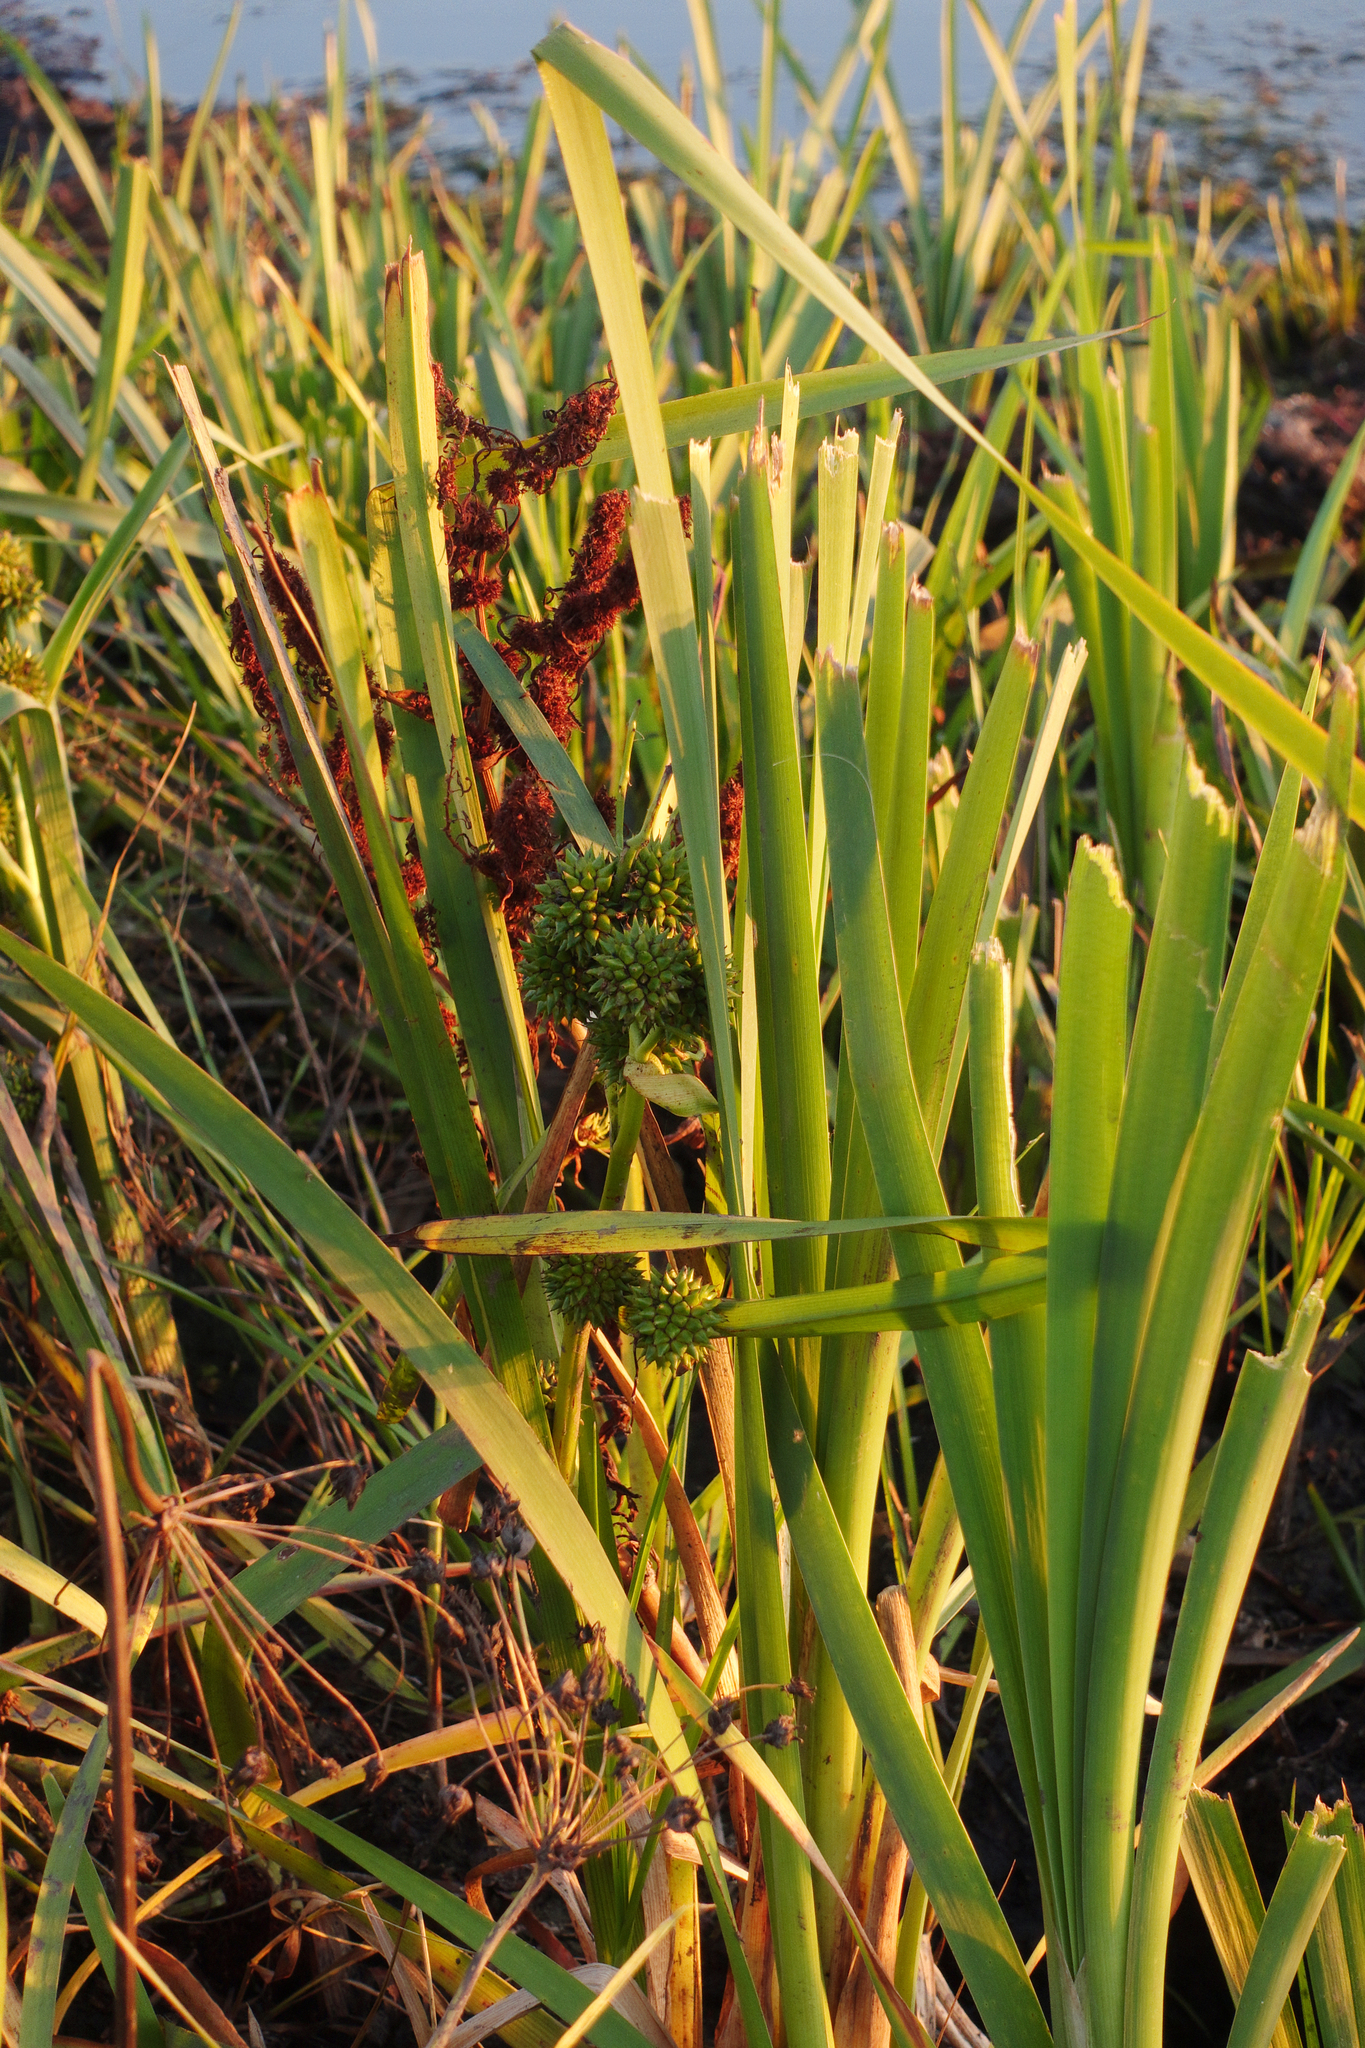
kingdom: Plantae
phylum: Tracheophyta
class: Liliopsida
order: Poales
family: Typhaceae
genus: Sparganium
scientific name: Sparganium erectum
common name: Branched bur-reed
